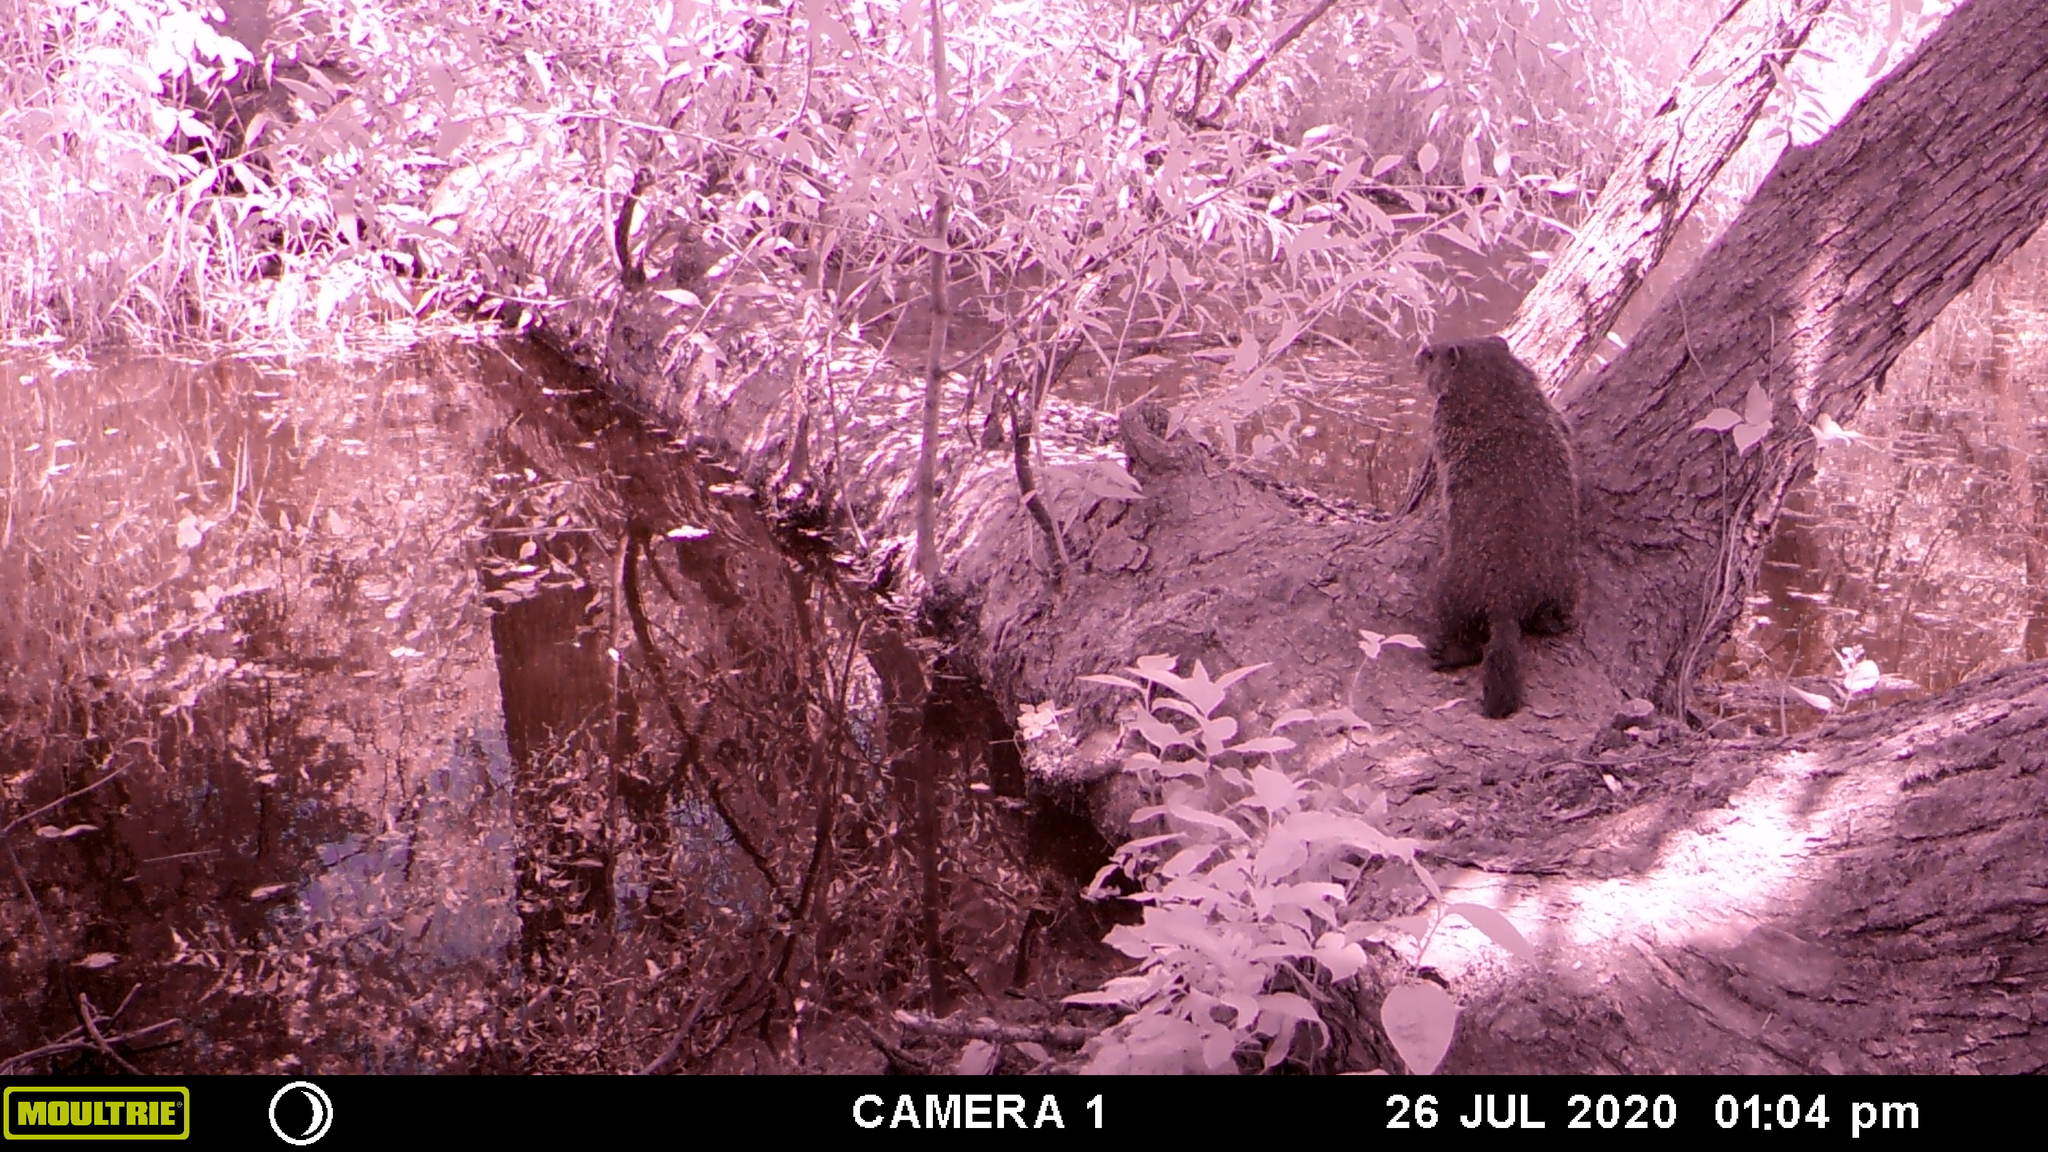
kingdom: Animalia
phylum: Chordata
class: Mammalia
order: Rodentia
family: Sciuridae
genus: Marmota
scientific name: Marmota monax
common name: Groundhog
